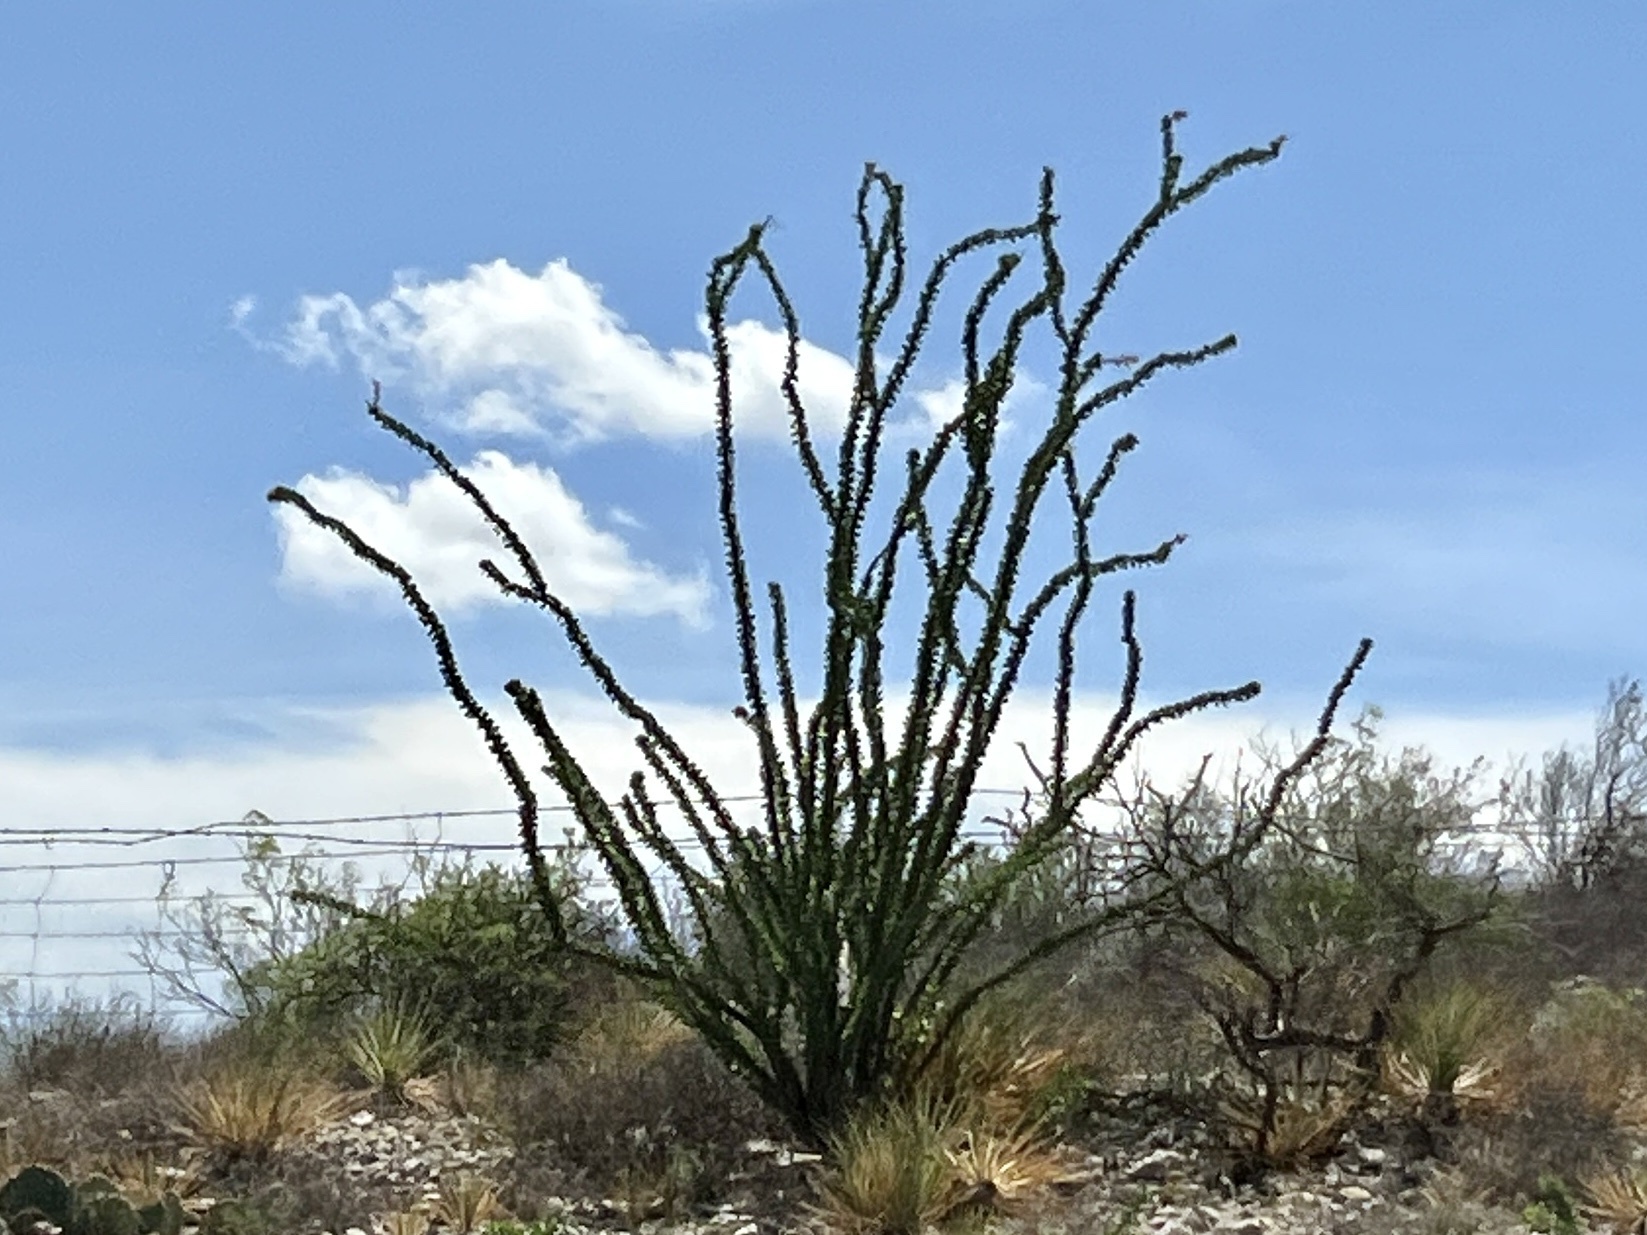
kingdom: Plantae
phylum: Tracheophyta
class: Magnoliopsida
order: Ericales
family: Fouquieriaceae
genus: Fouquieria
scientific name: Fouquieria splendens
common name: Vine-cactus
